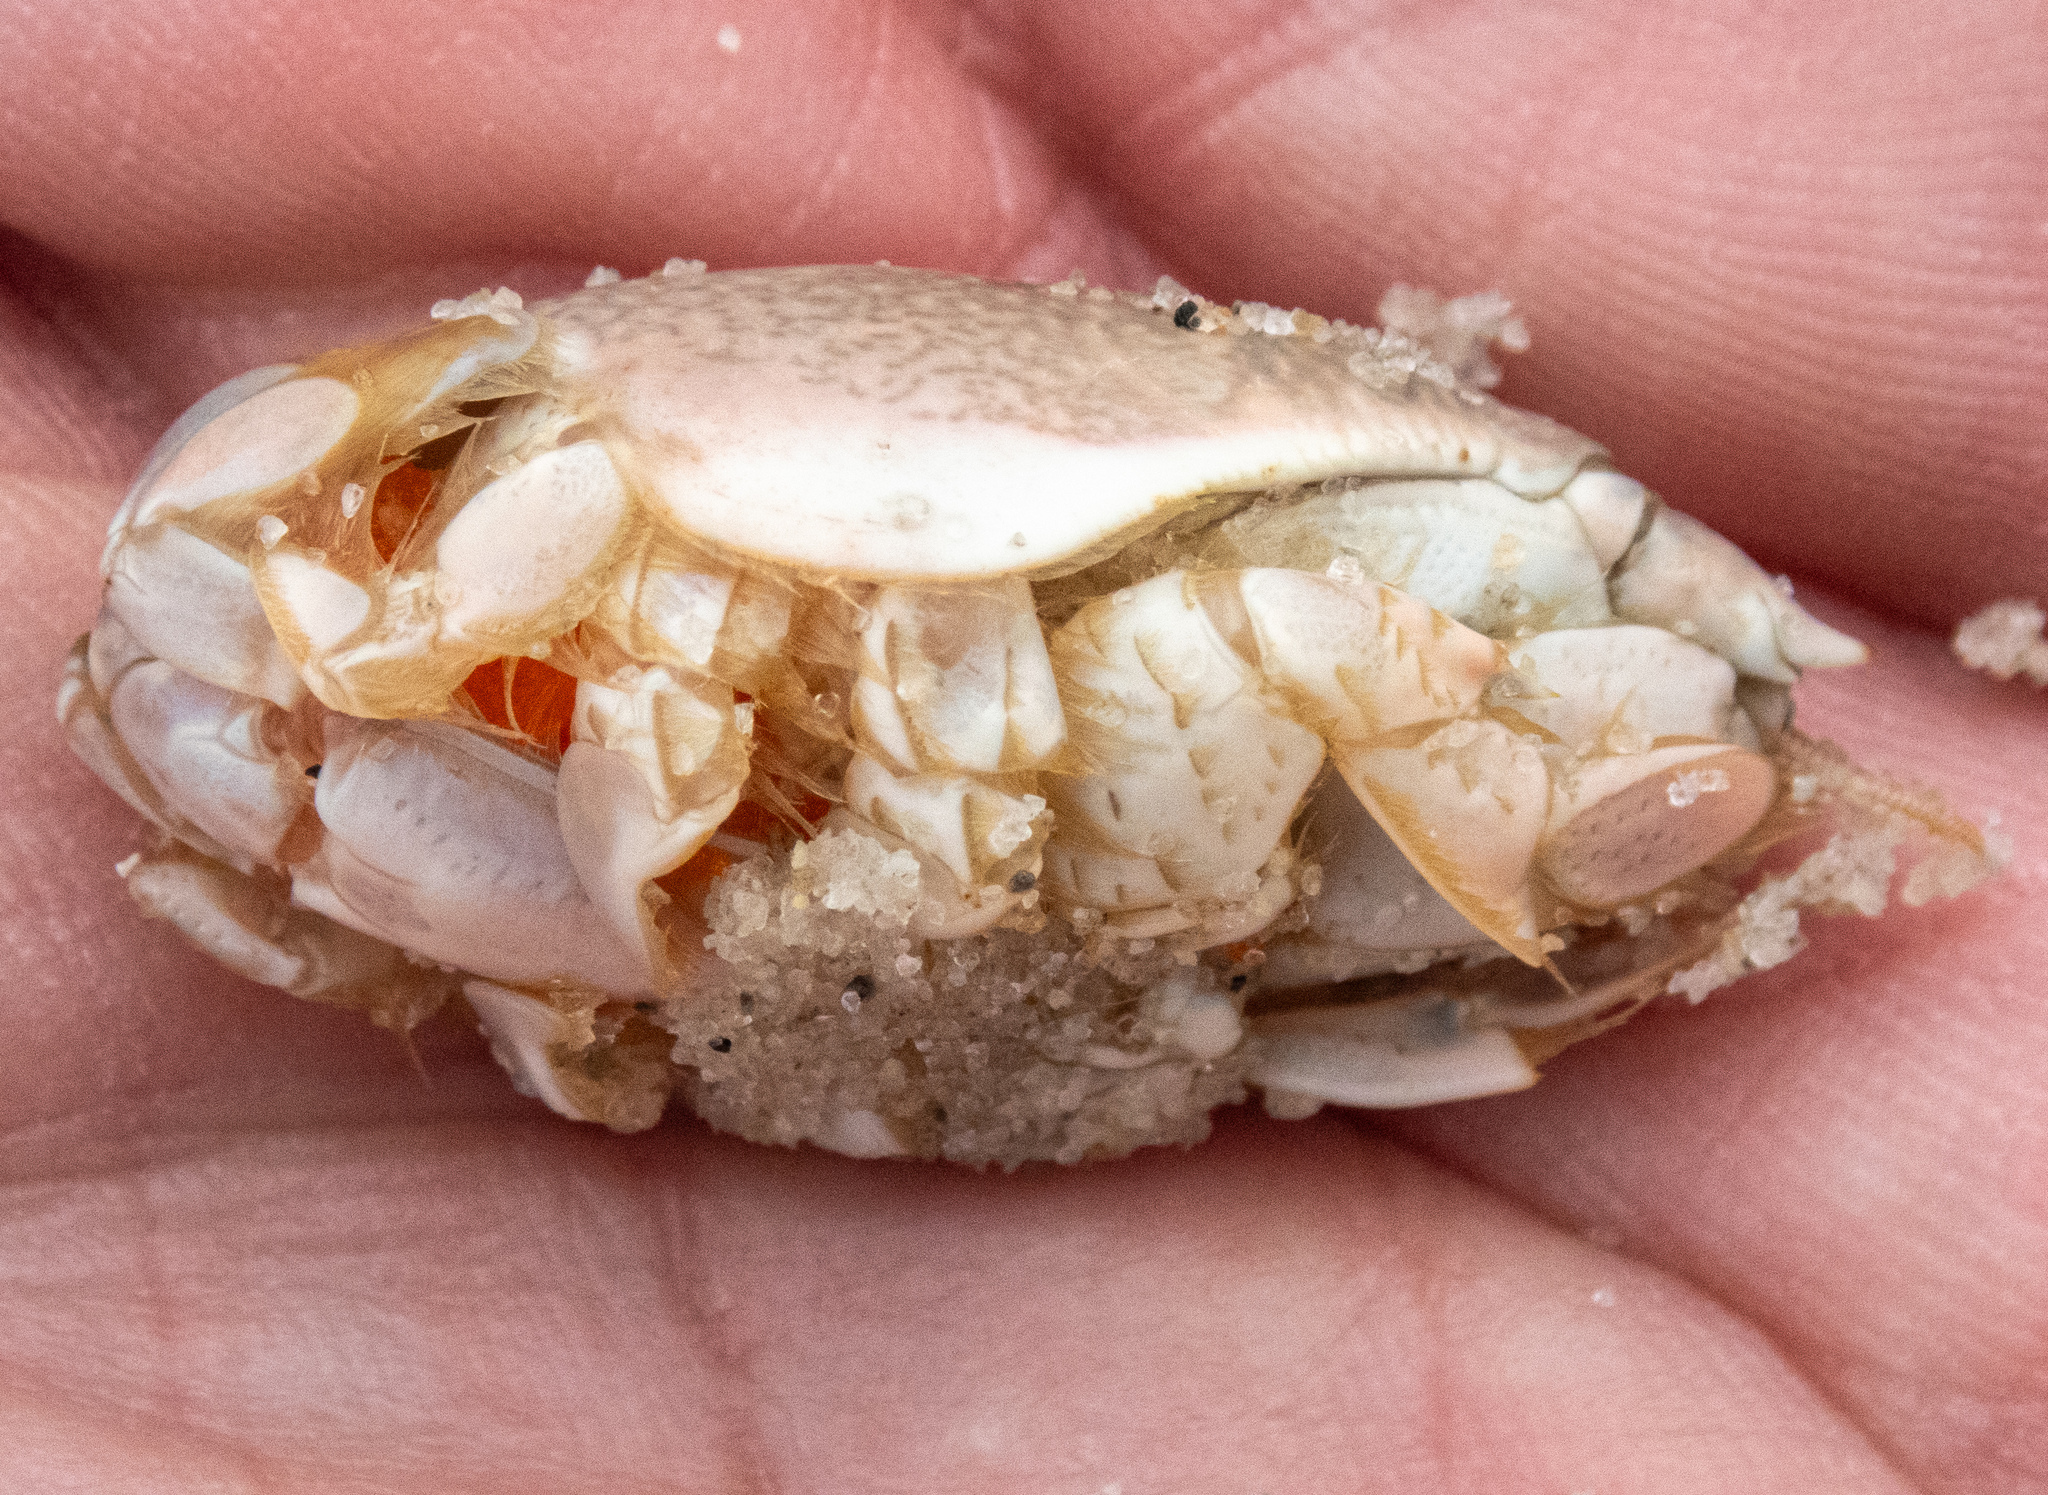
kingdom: Animalia
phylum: Arthropoda
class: Malacostraca
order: Decapoda
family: Hippidae
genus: Emerita
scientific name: Emerita analoga
